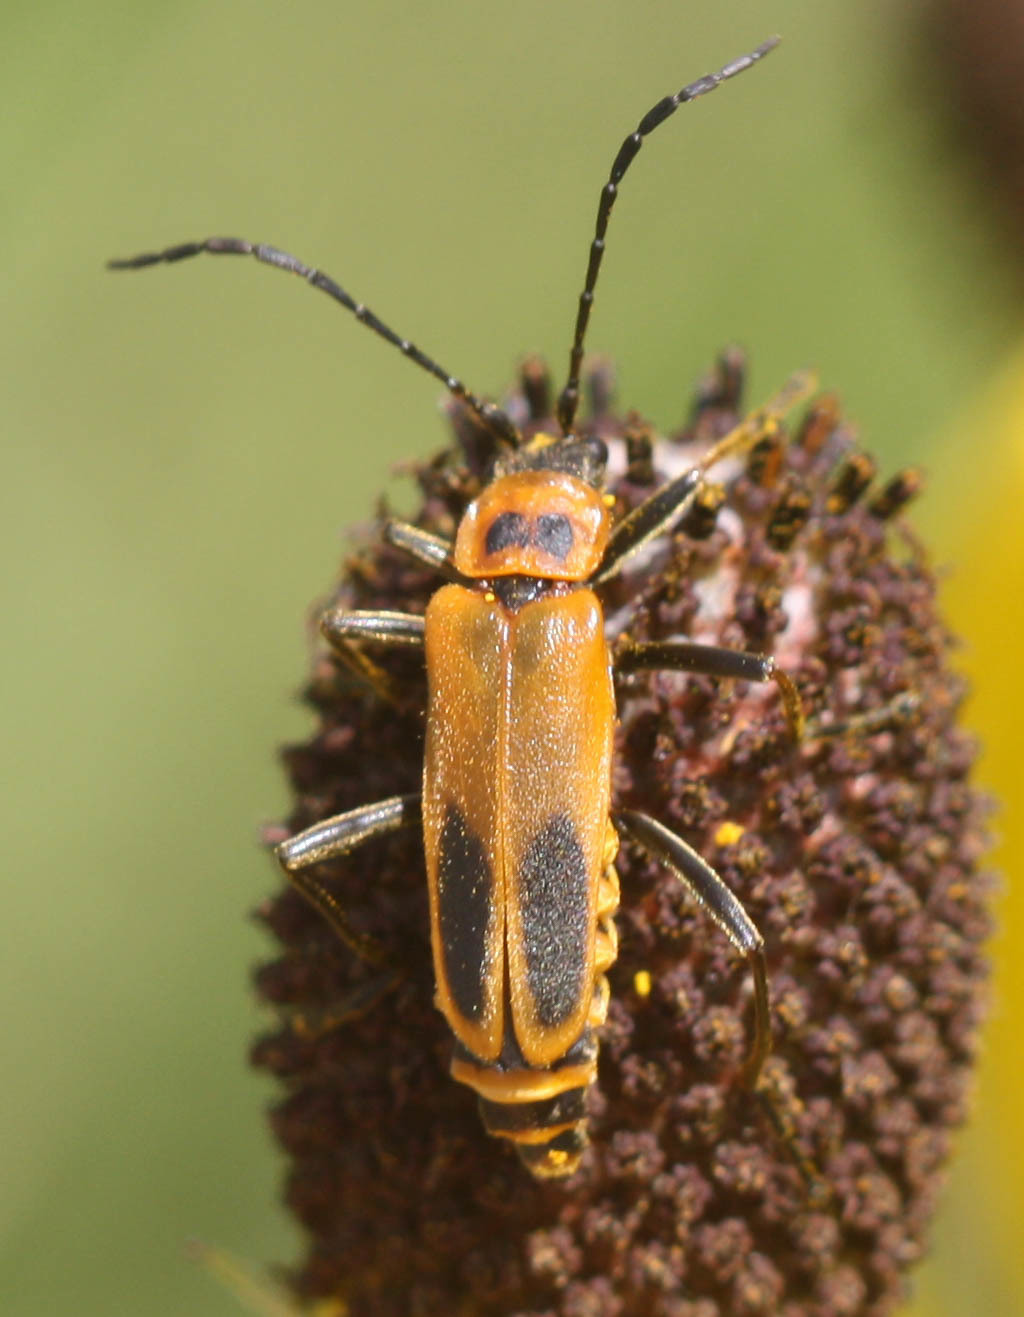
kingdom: Animalia
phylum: Arthropoda
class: Insecta
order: Coleoptera
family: Cantharidae
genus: Chauliognathus
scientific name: Chauliognathus pensylvanicus
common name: Goldenrod soldier beetle
